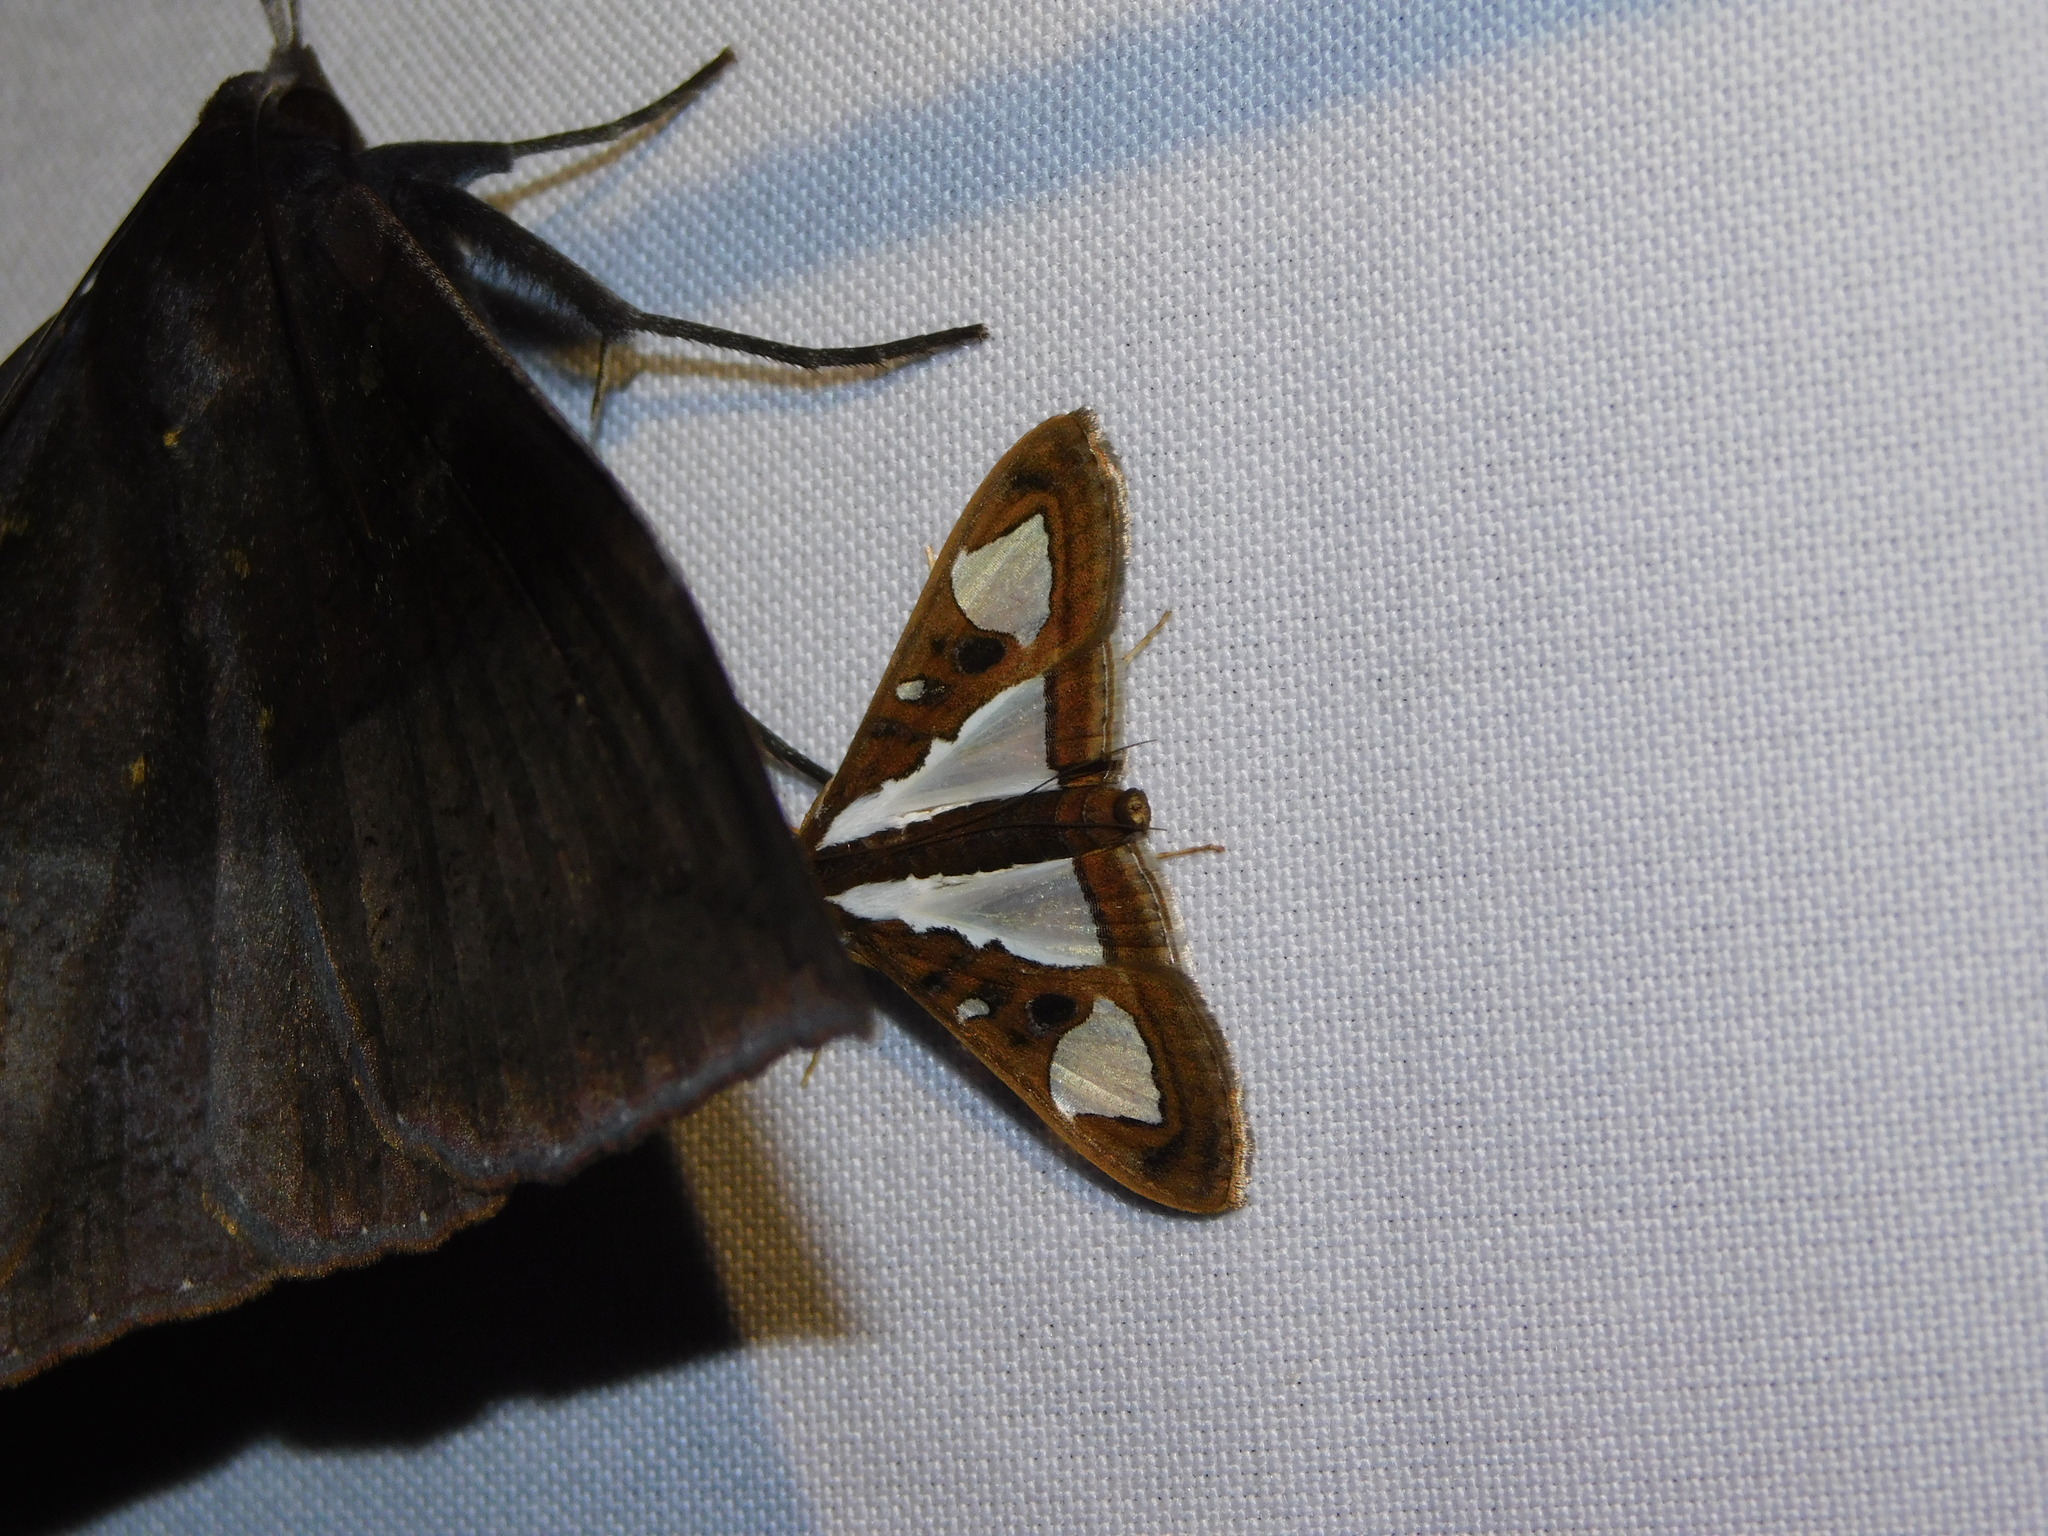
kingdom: Animalia
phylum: Arthropoda
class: Insecta
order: Lepidoptera
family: Crambidae
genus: Glyphodes
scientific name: Glyphodes bivitralis
